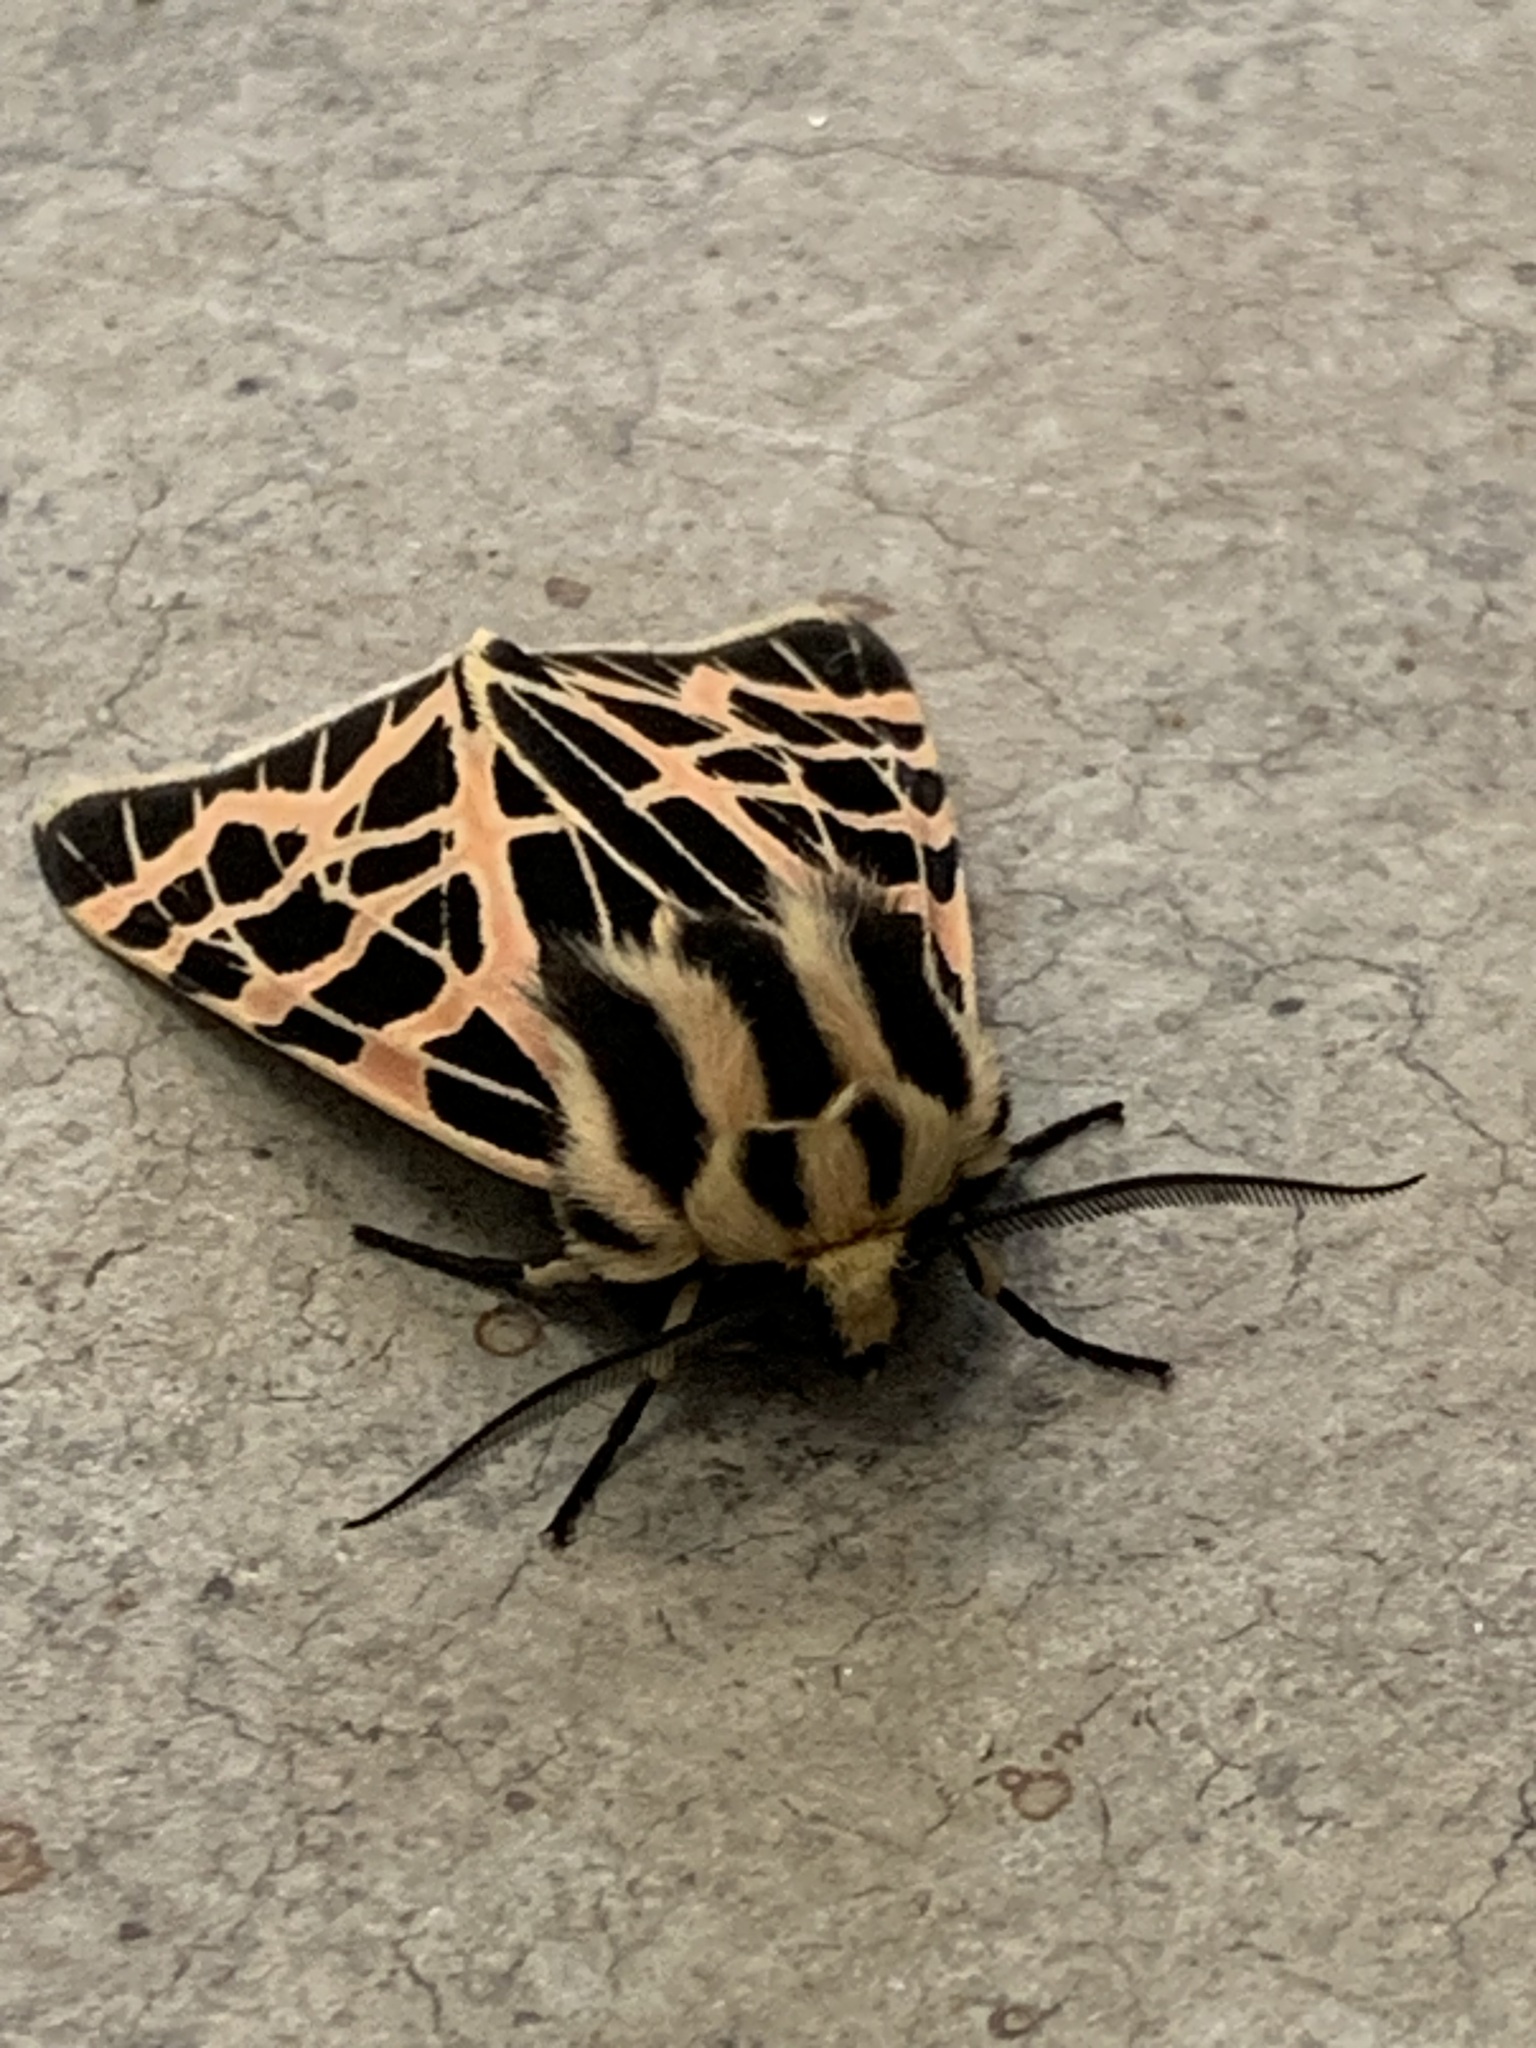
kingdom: Animalia
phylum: Arthropoda
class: Insecta
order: Lepidoptera
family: Erebidae
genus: Apantesis
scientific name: Apantesis
